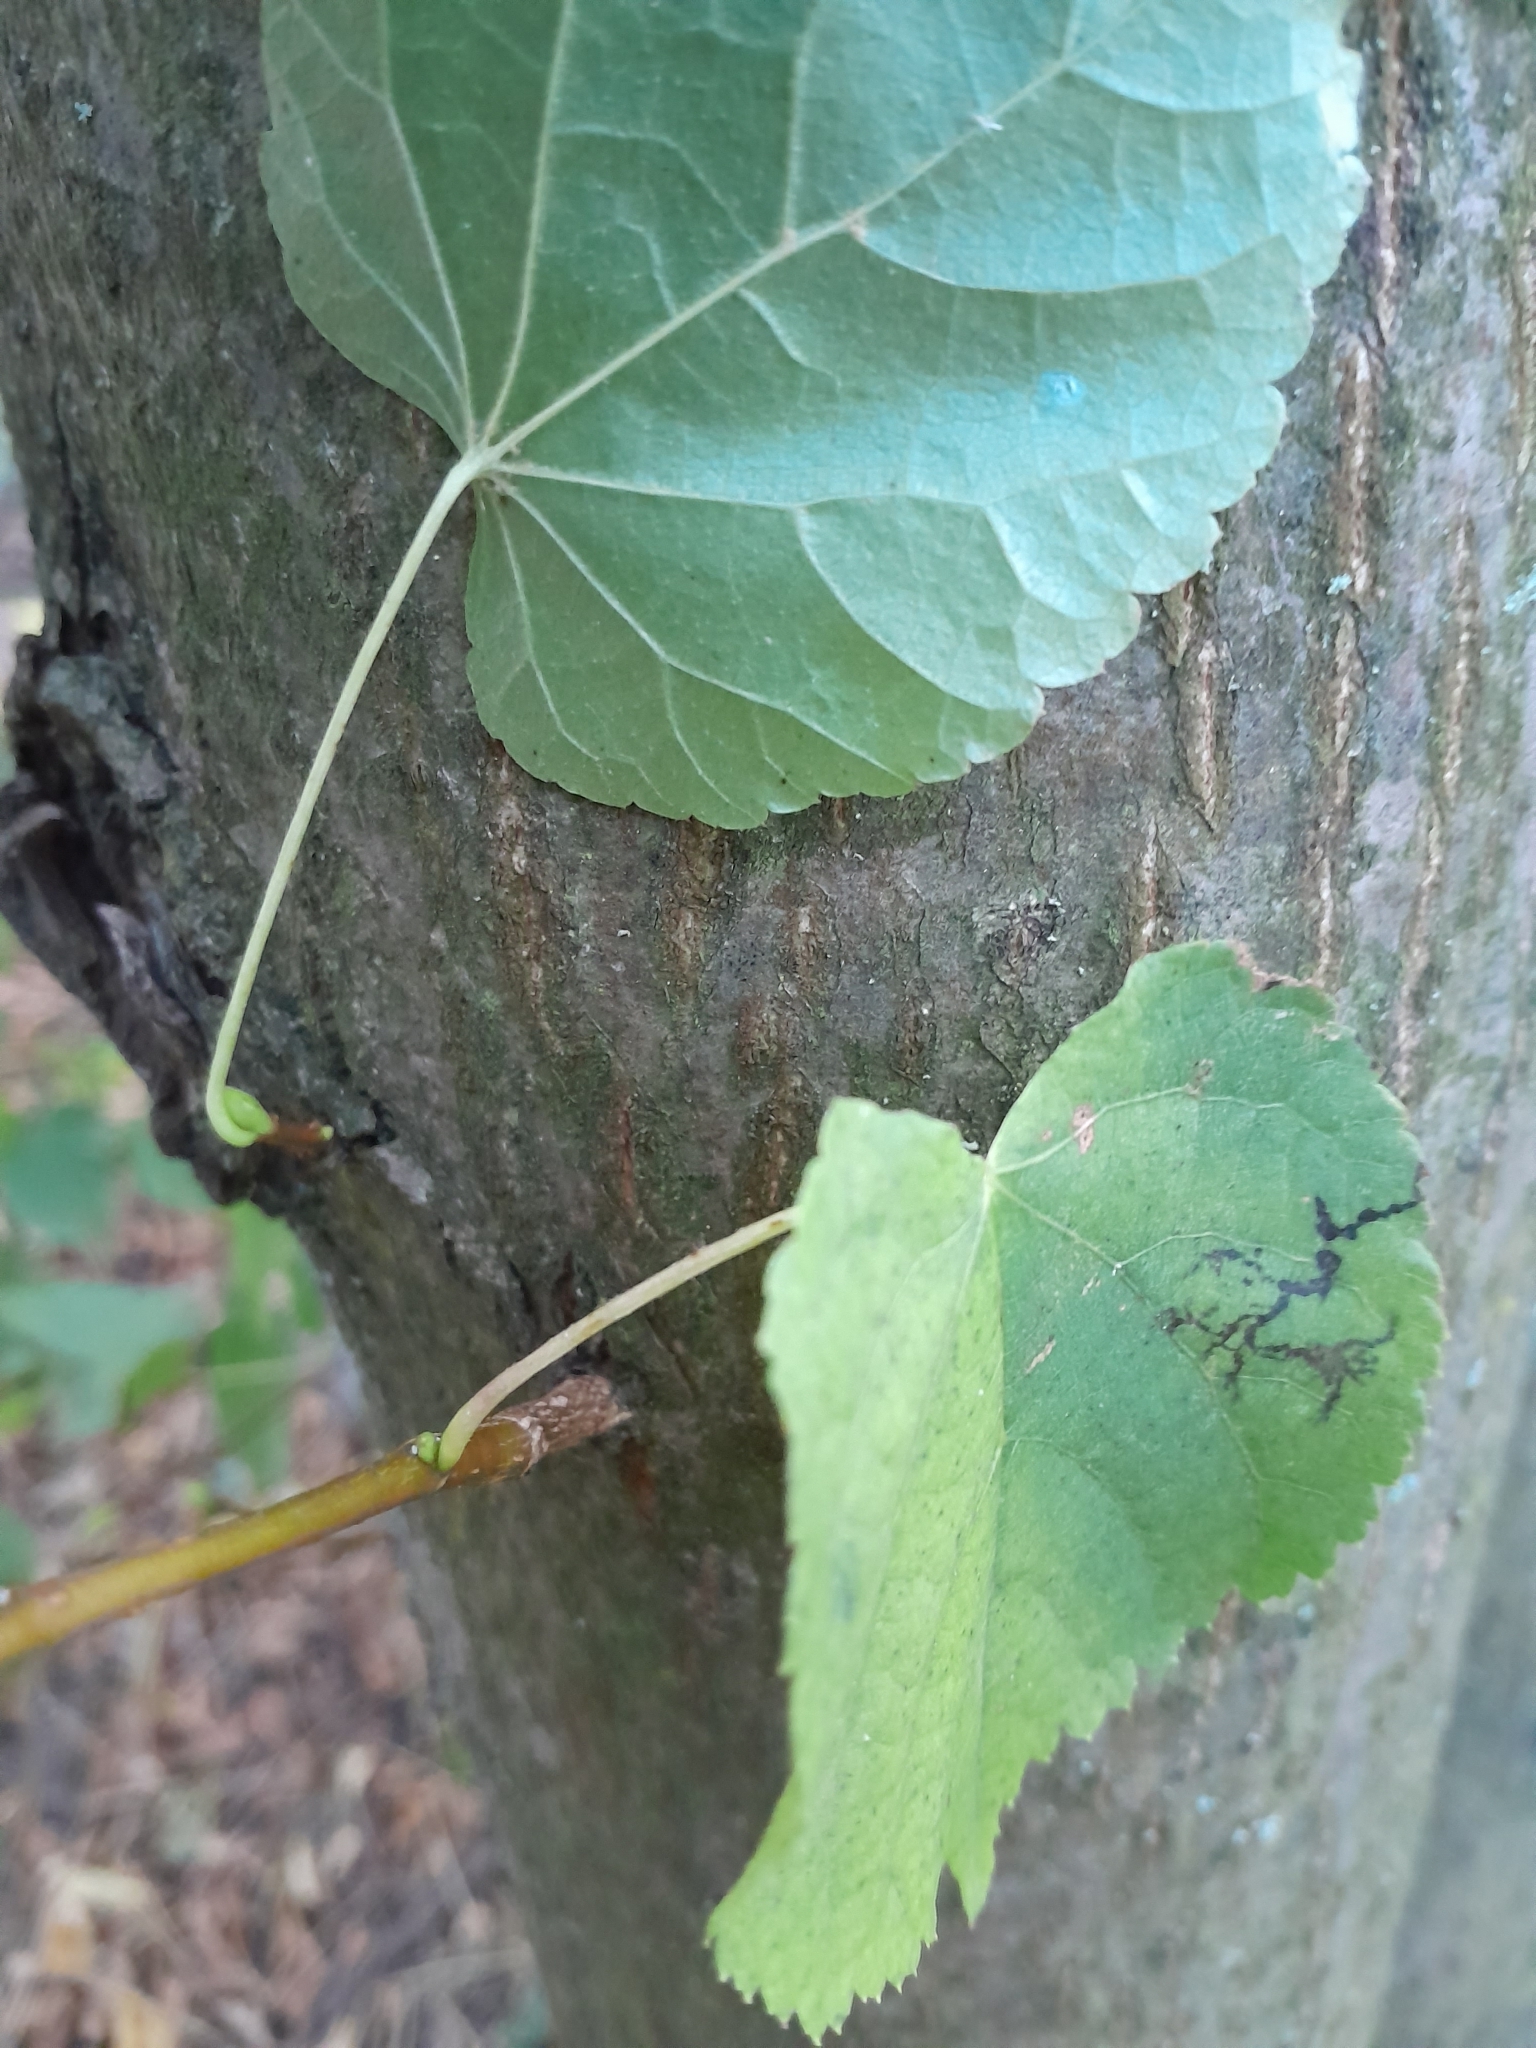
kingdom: Plantae
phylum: Tracheophyta
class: Magnoliopsida
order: Malvales
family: Malvaceae
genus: Tilia
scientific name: Tilia platyphyllos
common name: Large-leaved lime
